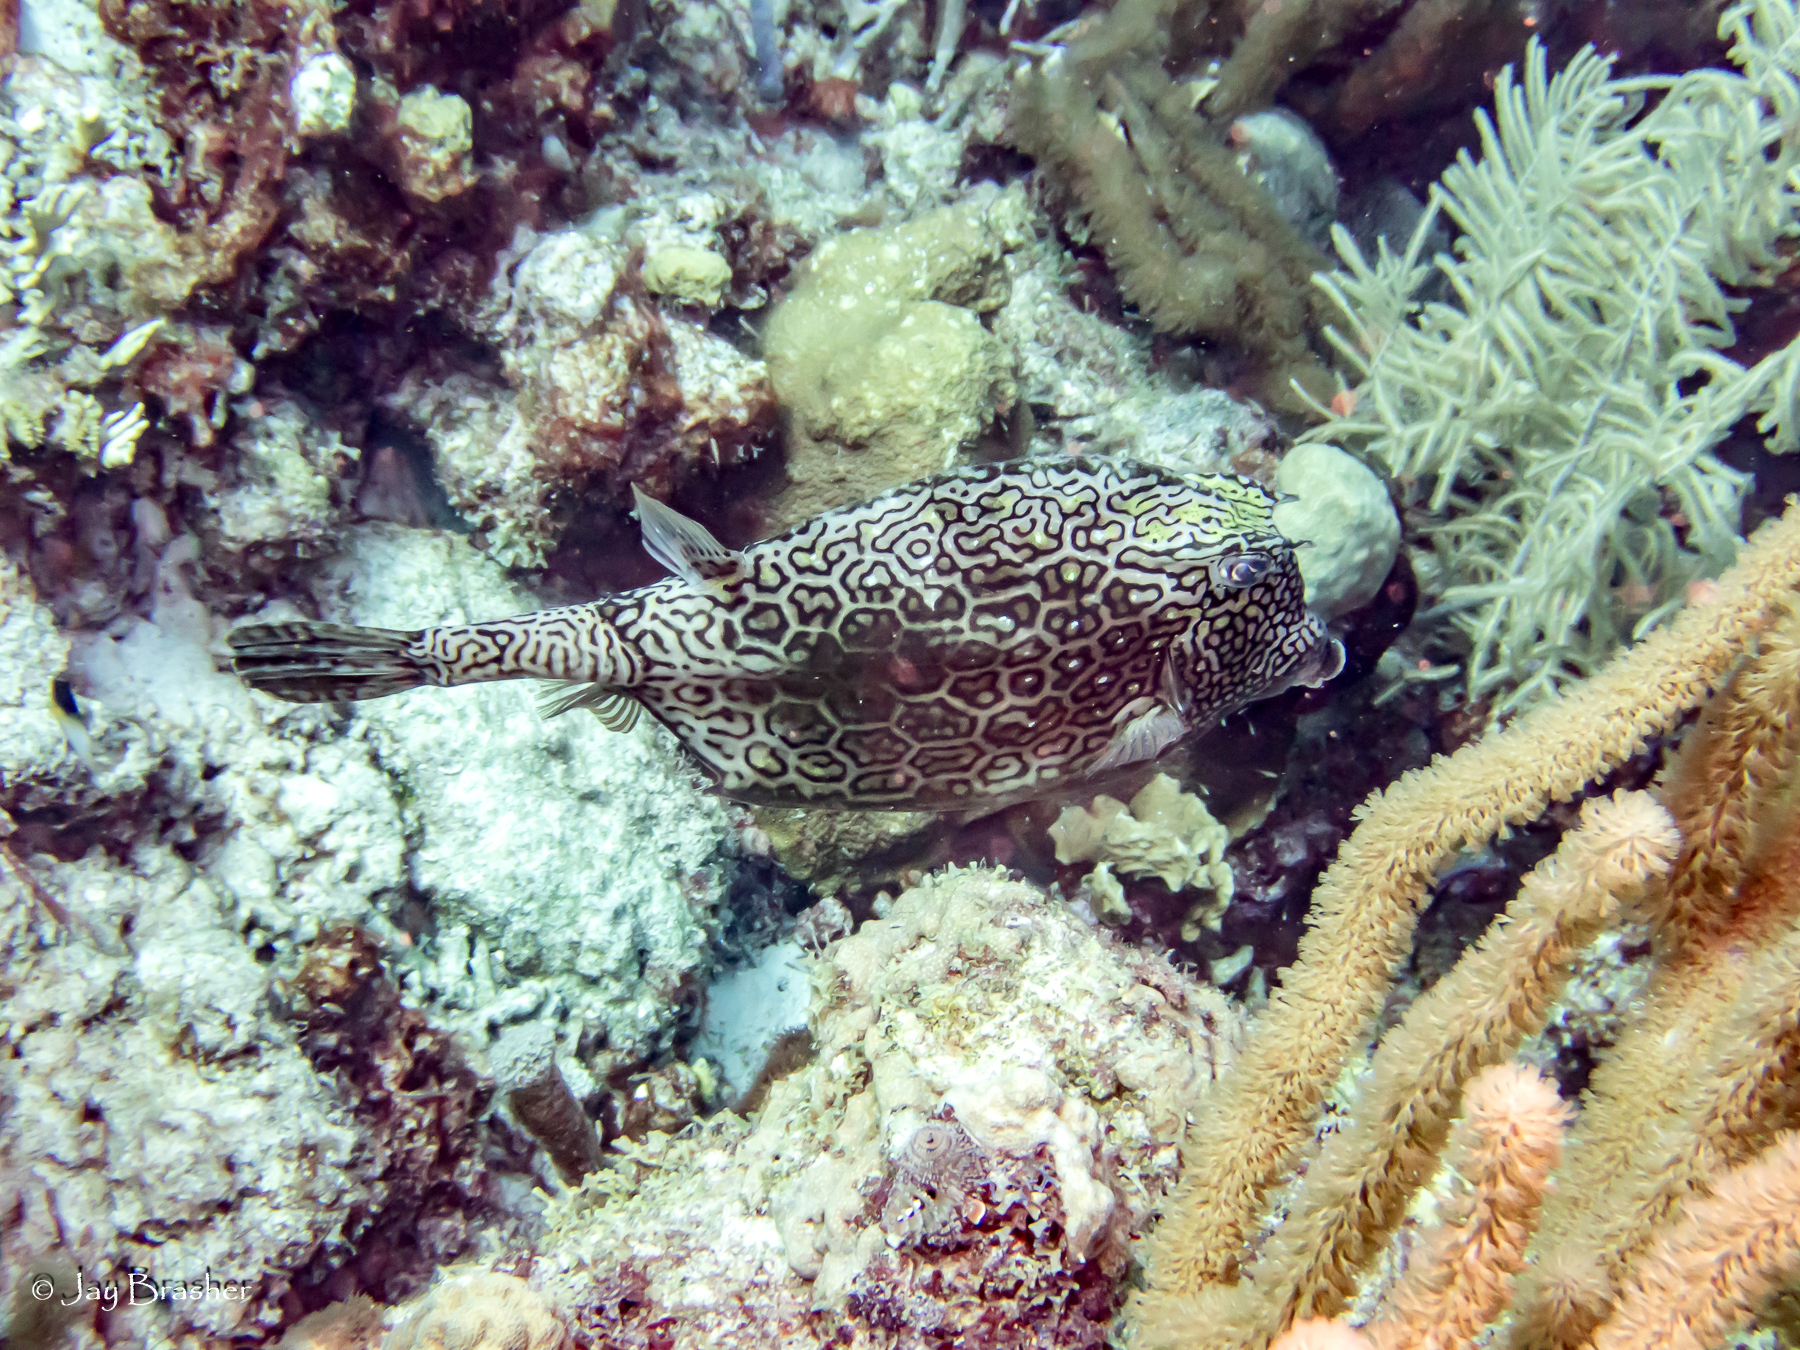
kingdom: Animalia
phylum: Chordata
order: Tetraodontiformes
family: Ostraciidae
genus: Acanthostracion
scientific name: Acanthostracion polygonius
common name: Honeycomb cowfish
